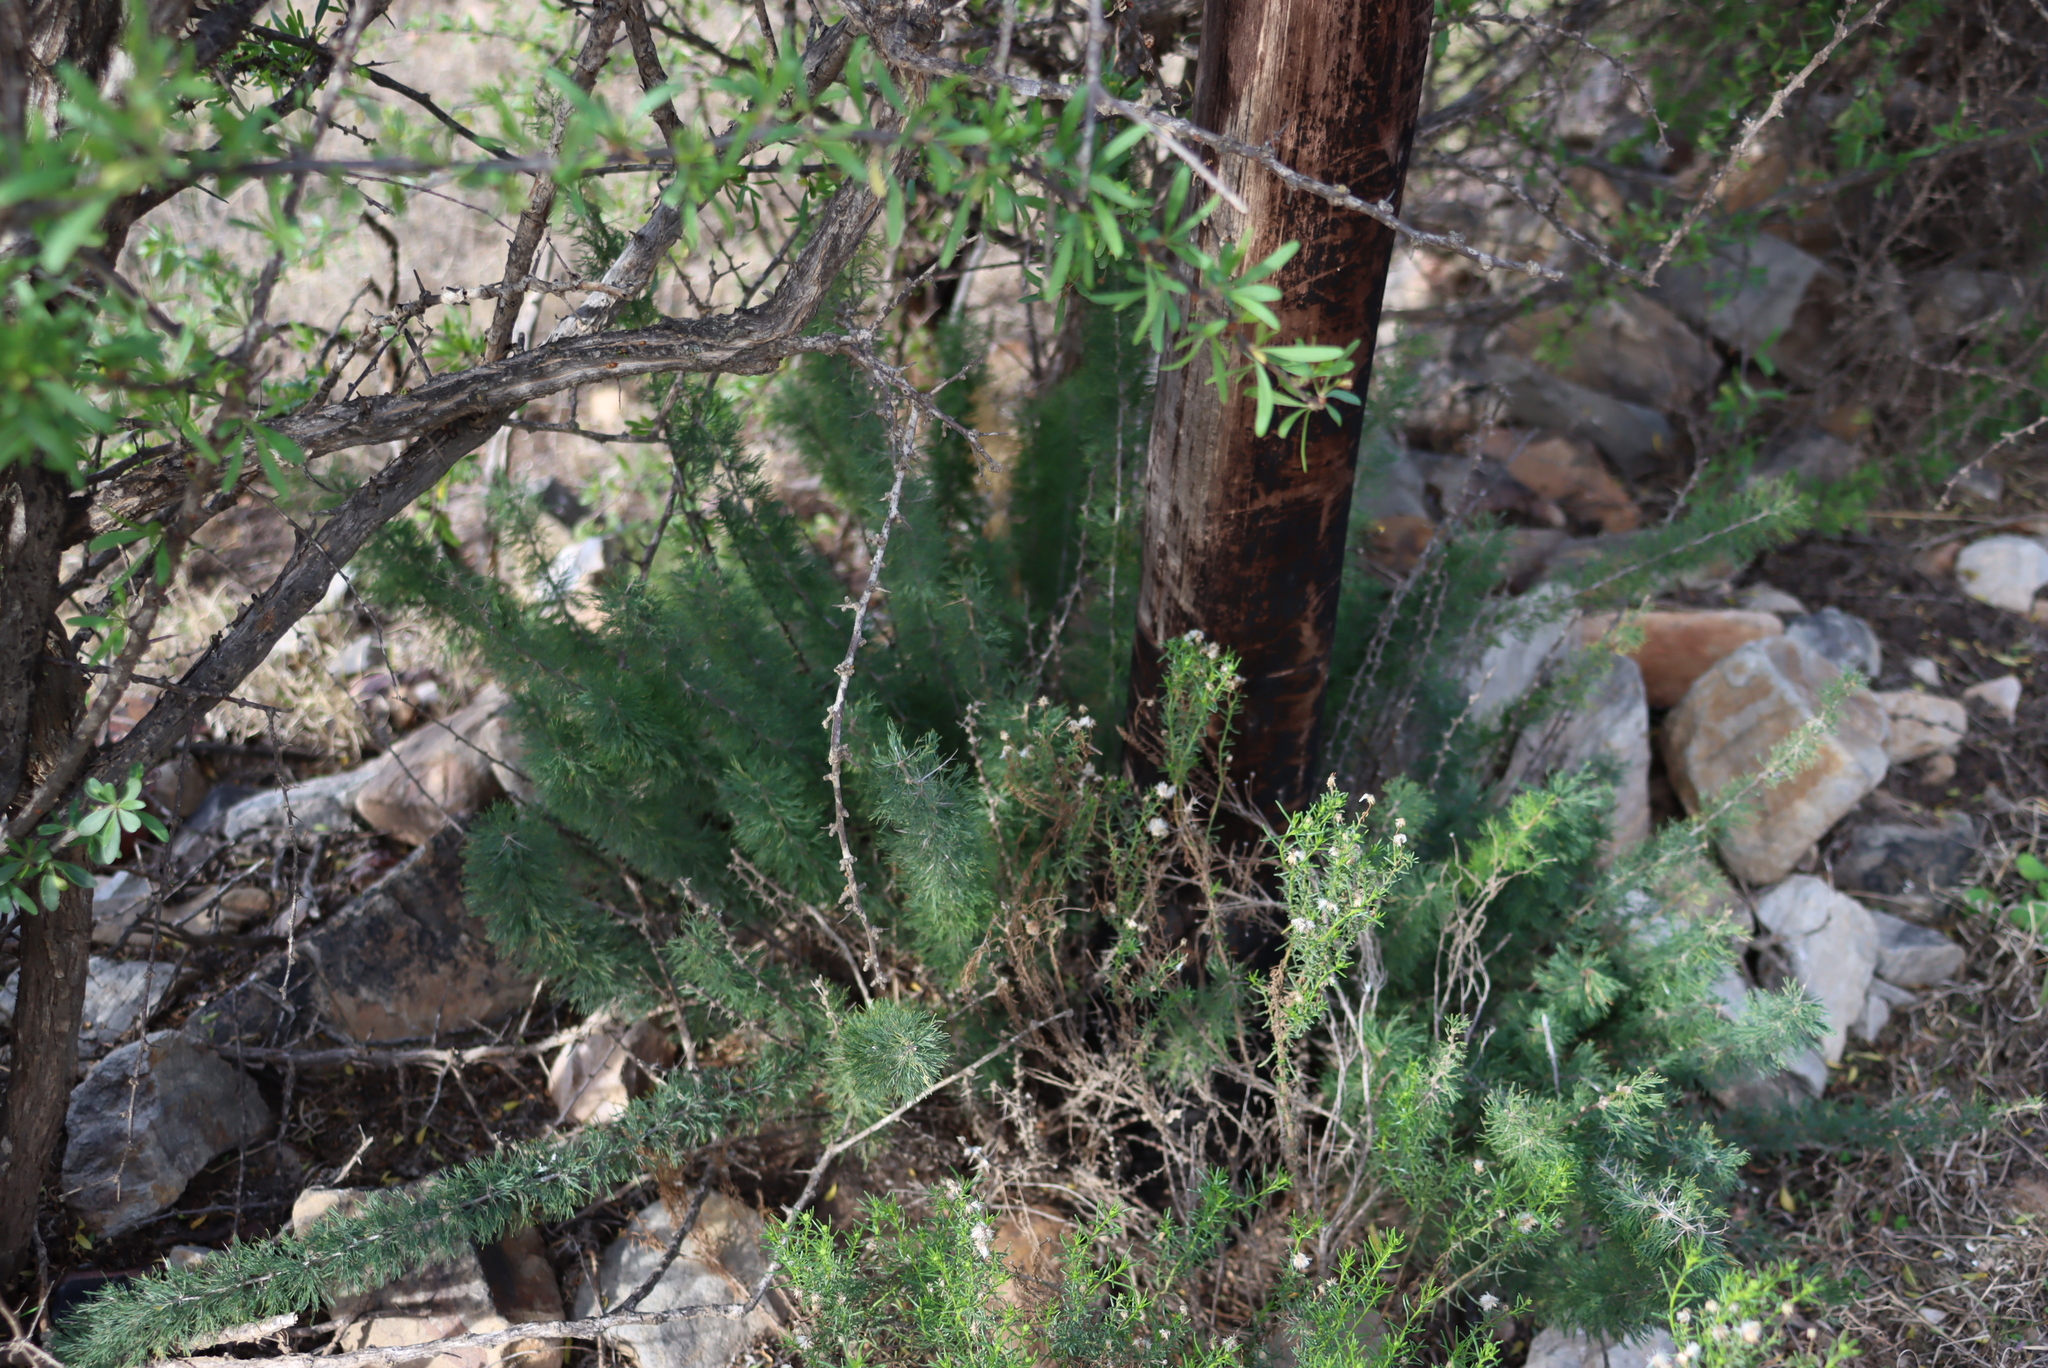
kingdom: Plantae
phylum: Tracheophyta
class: Liliopsida
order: Asparagales
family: Asparagaceae
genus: Asparagus
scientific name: Asparagus suaveolens
